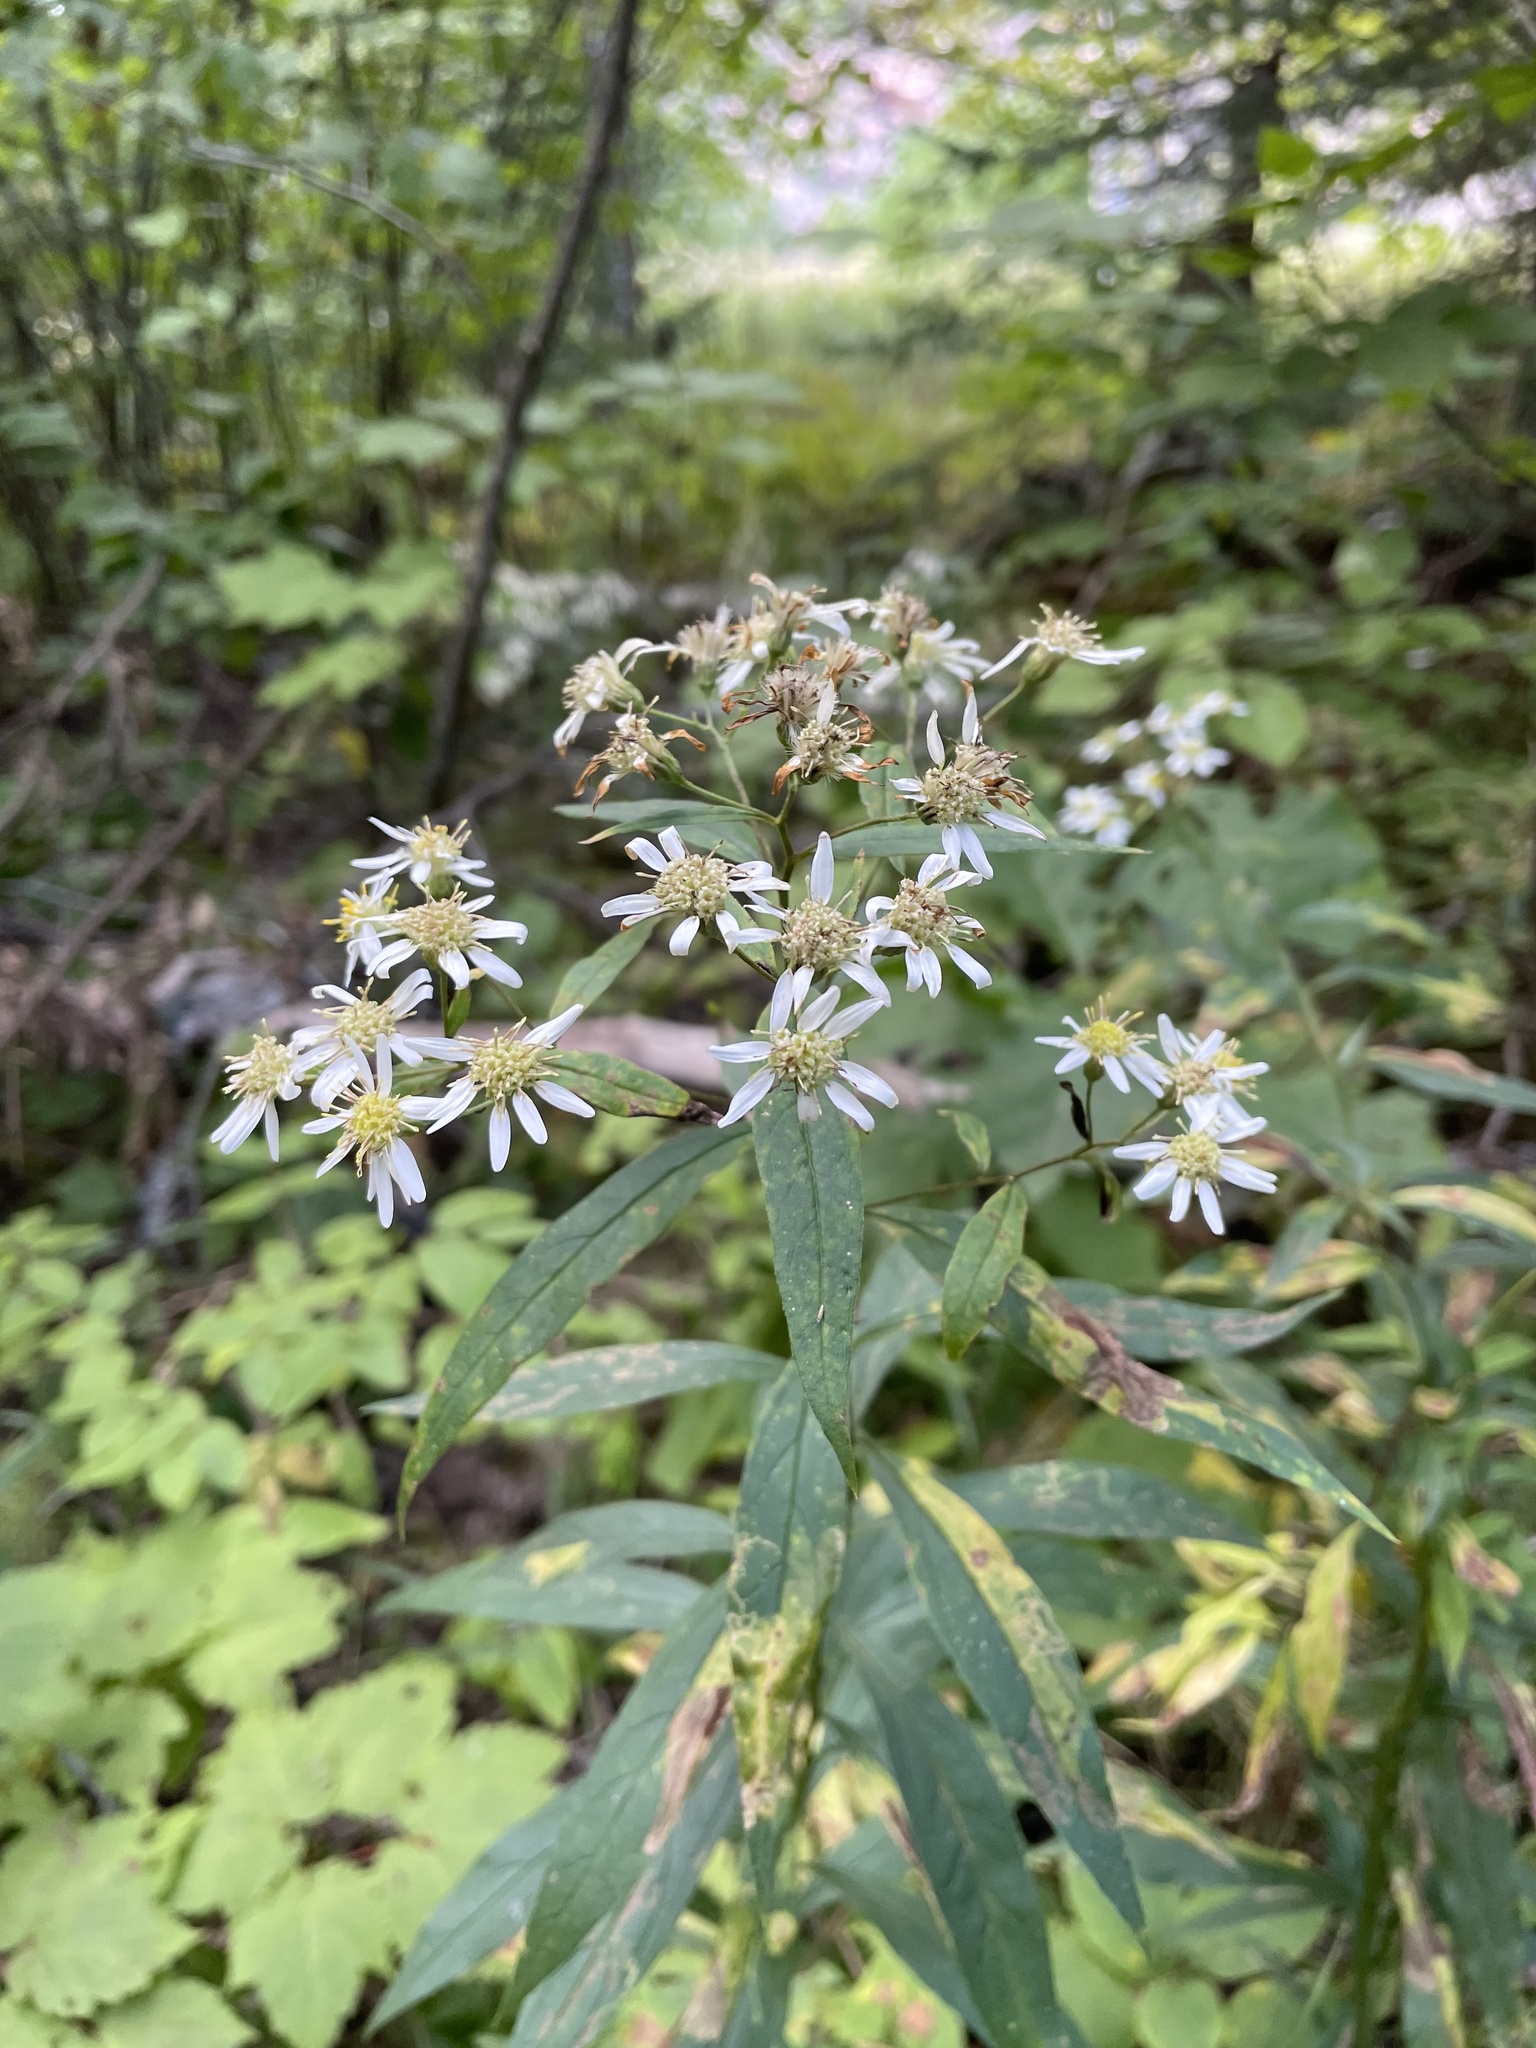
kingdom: Plantae
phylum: Tracheophyta
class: Magnoliopsida
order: Asterales
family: Asteraceae
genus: Doellingeria
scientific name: Doellingeria umbellata
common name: Flat-top white aster
